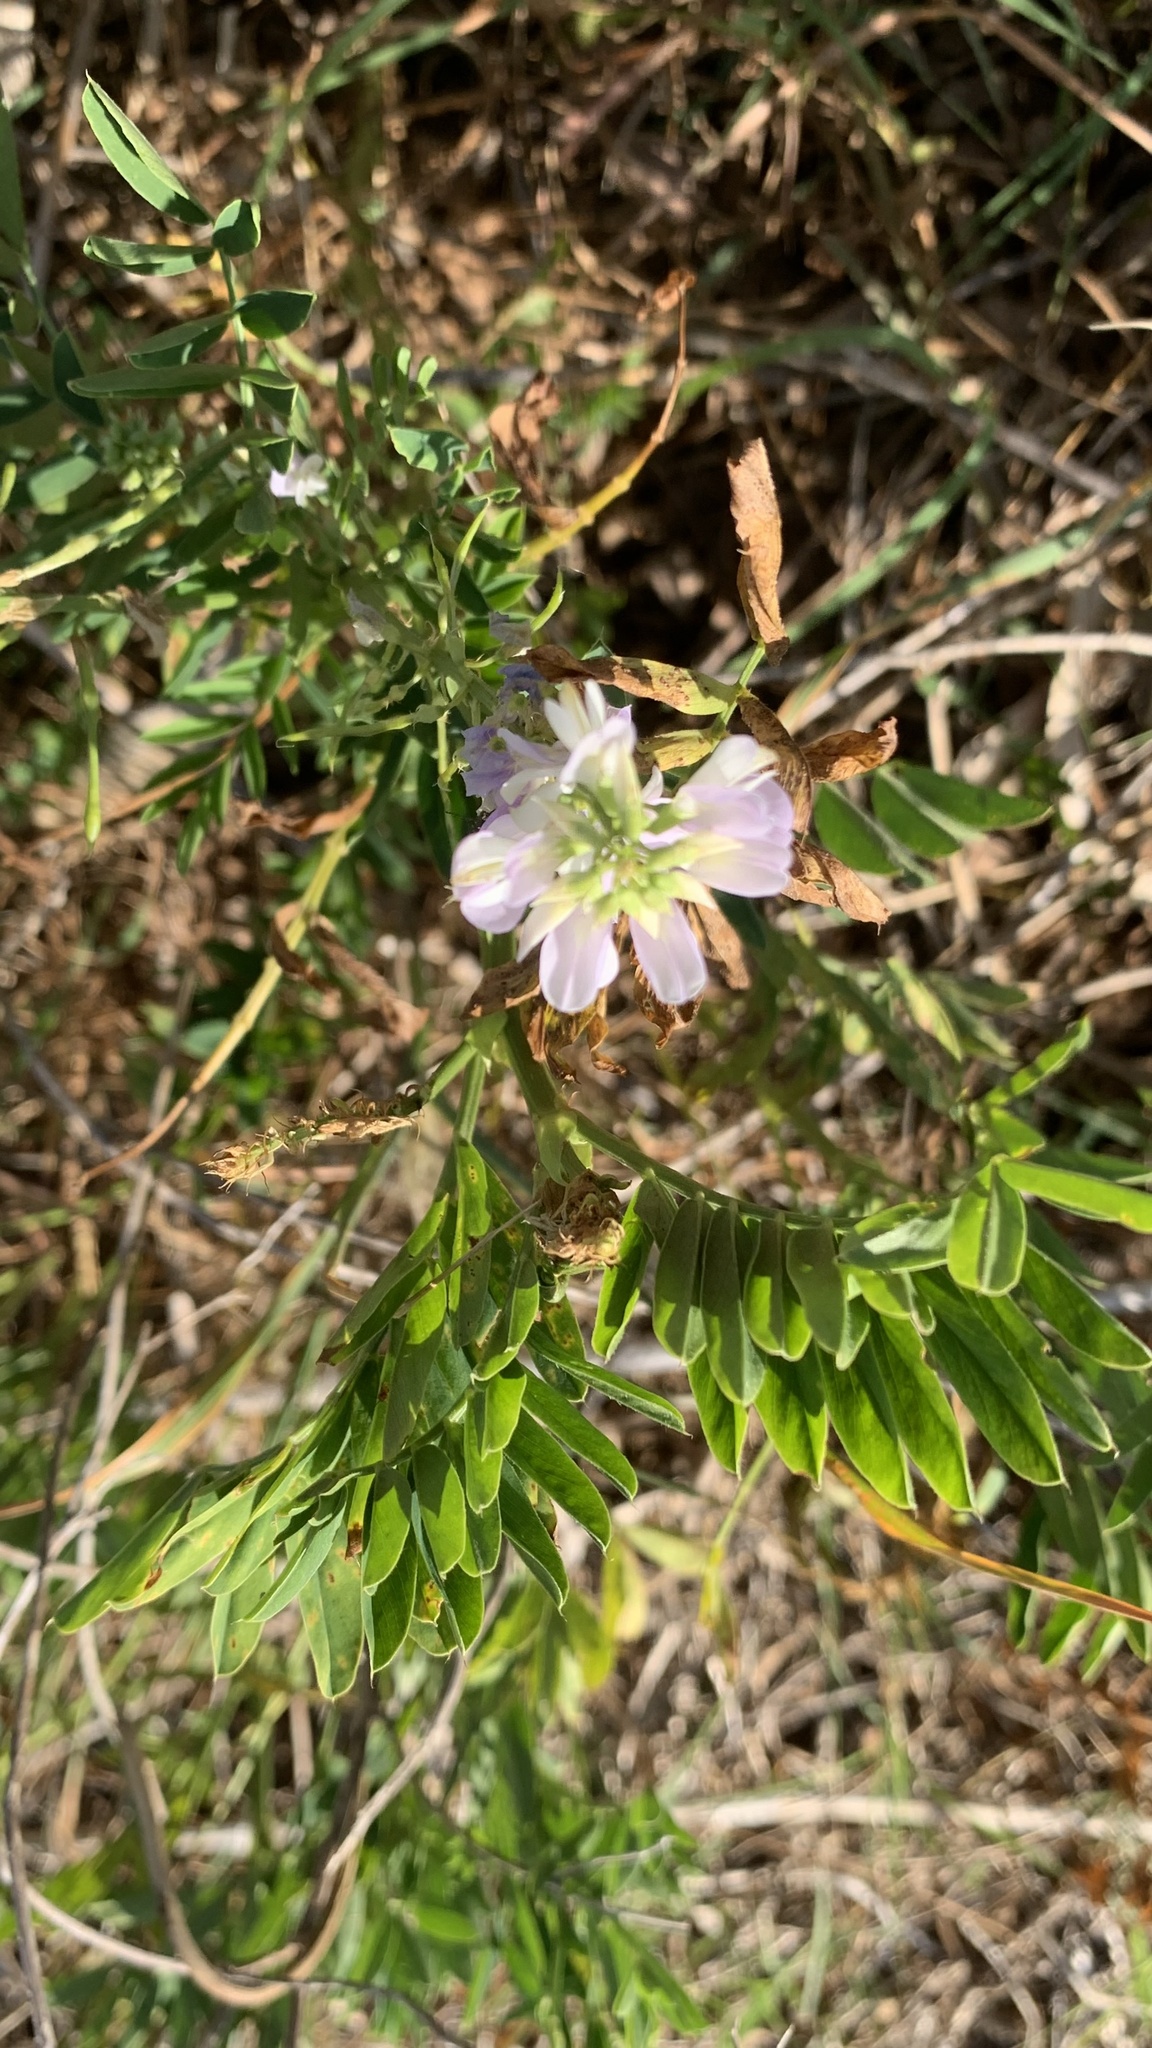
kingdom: Plantae
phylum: Tracheophyta
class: Magnoliopsida
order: Fabales
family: Fabaceae
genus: Galega
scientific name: Galega officinalis
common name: Goat's-rue
